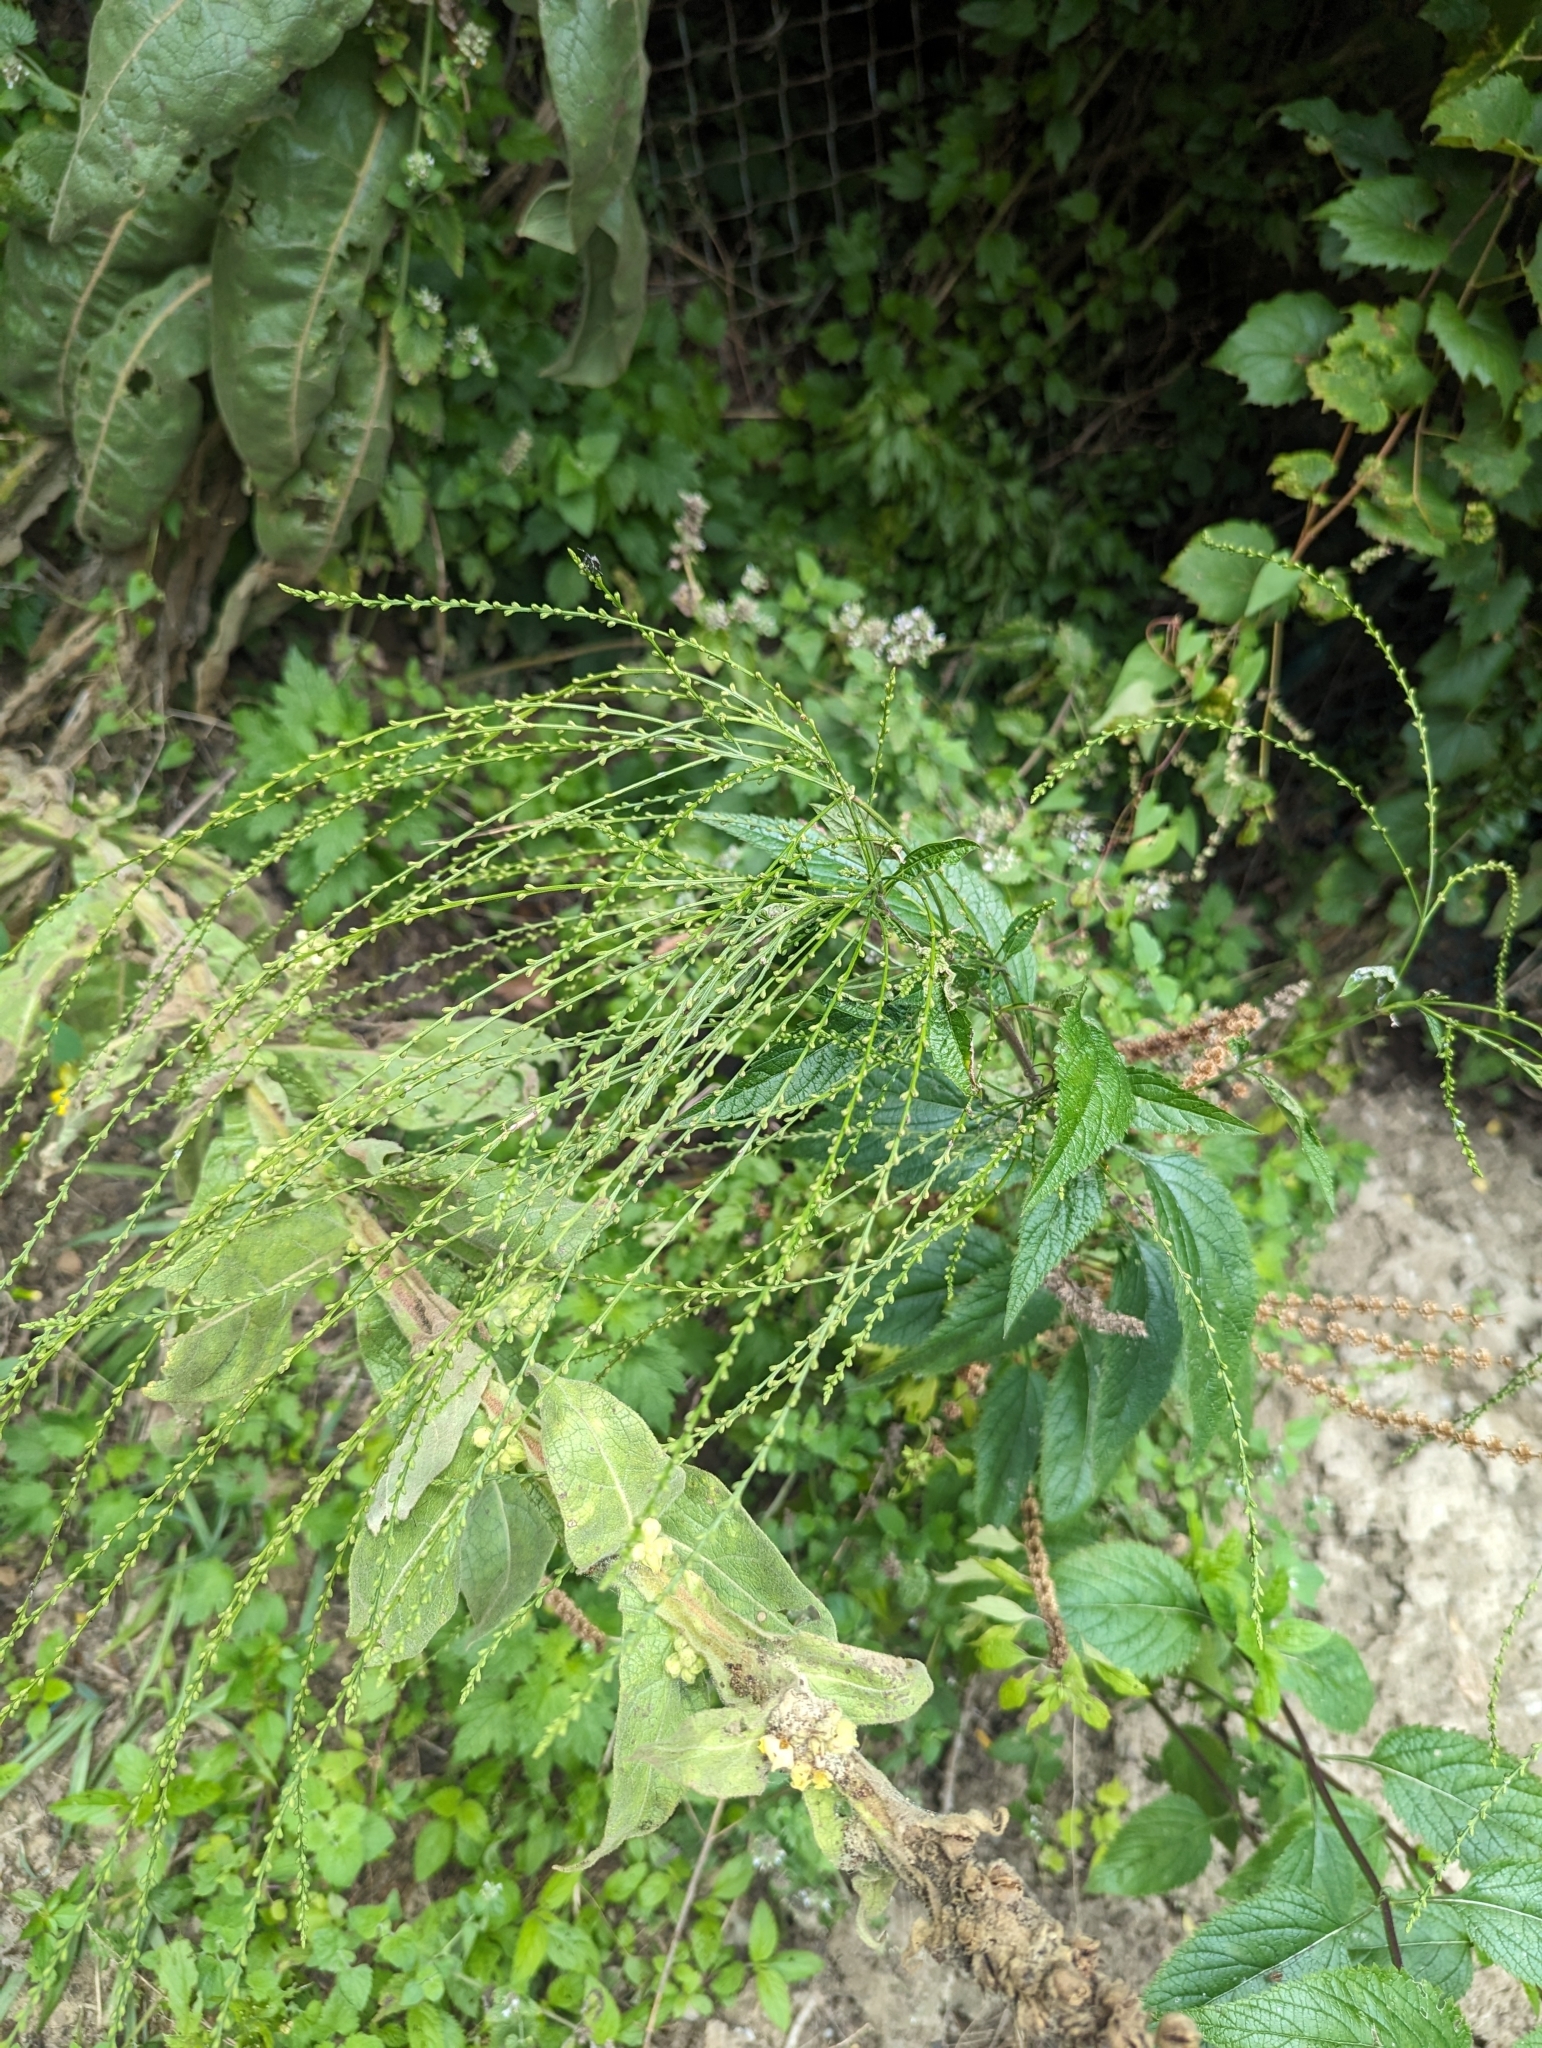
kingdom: Plantae
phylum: Tracheophyta
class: Magnoliopsida
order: Lamiales
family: Verbenaceae
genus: Verbena
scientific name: Verbena urticifolia
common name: Nettle-leaved vervain
